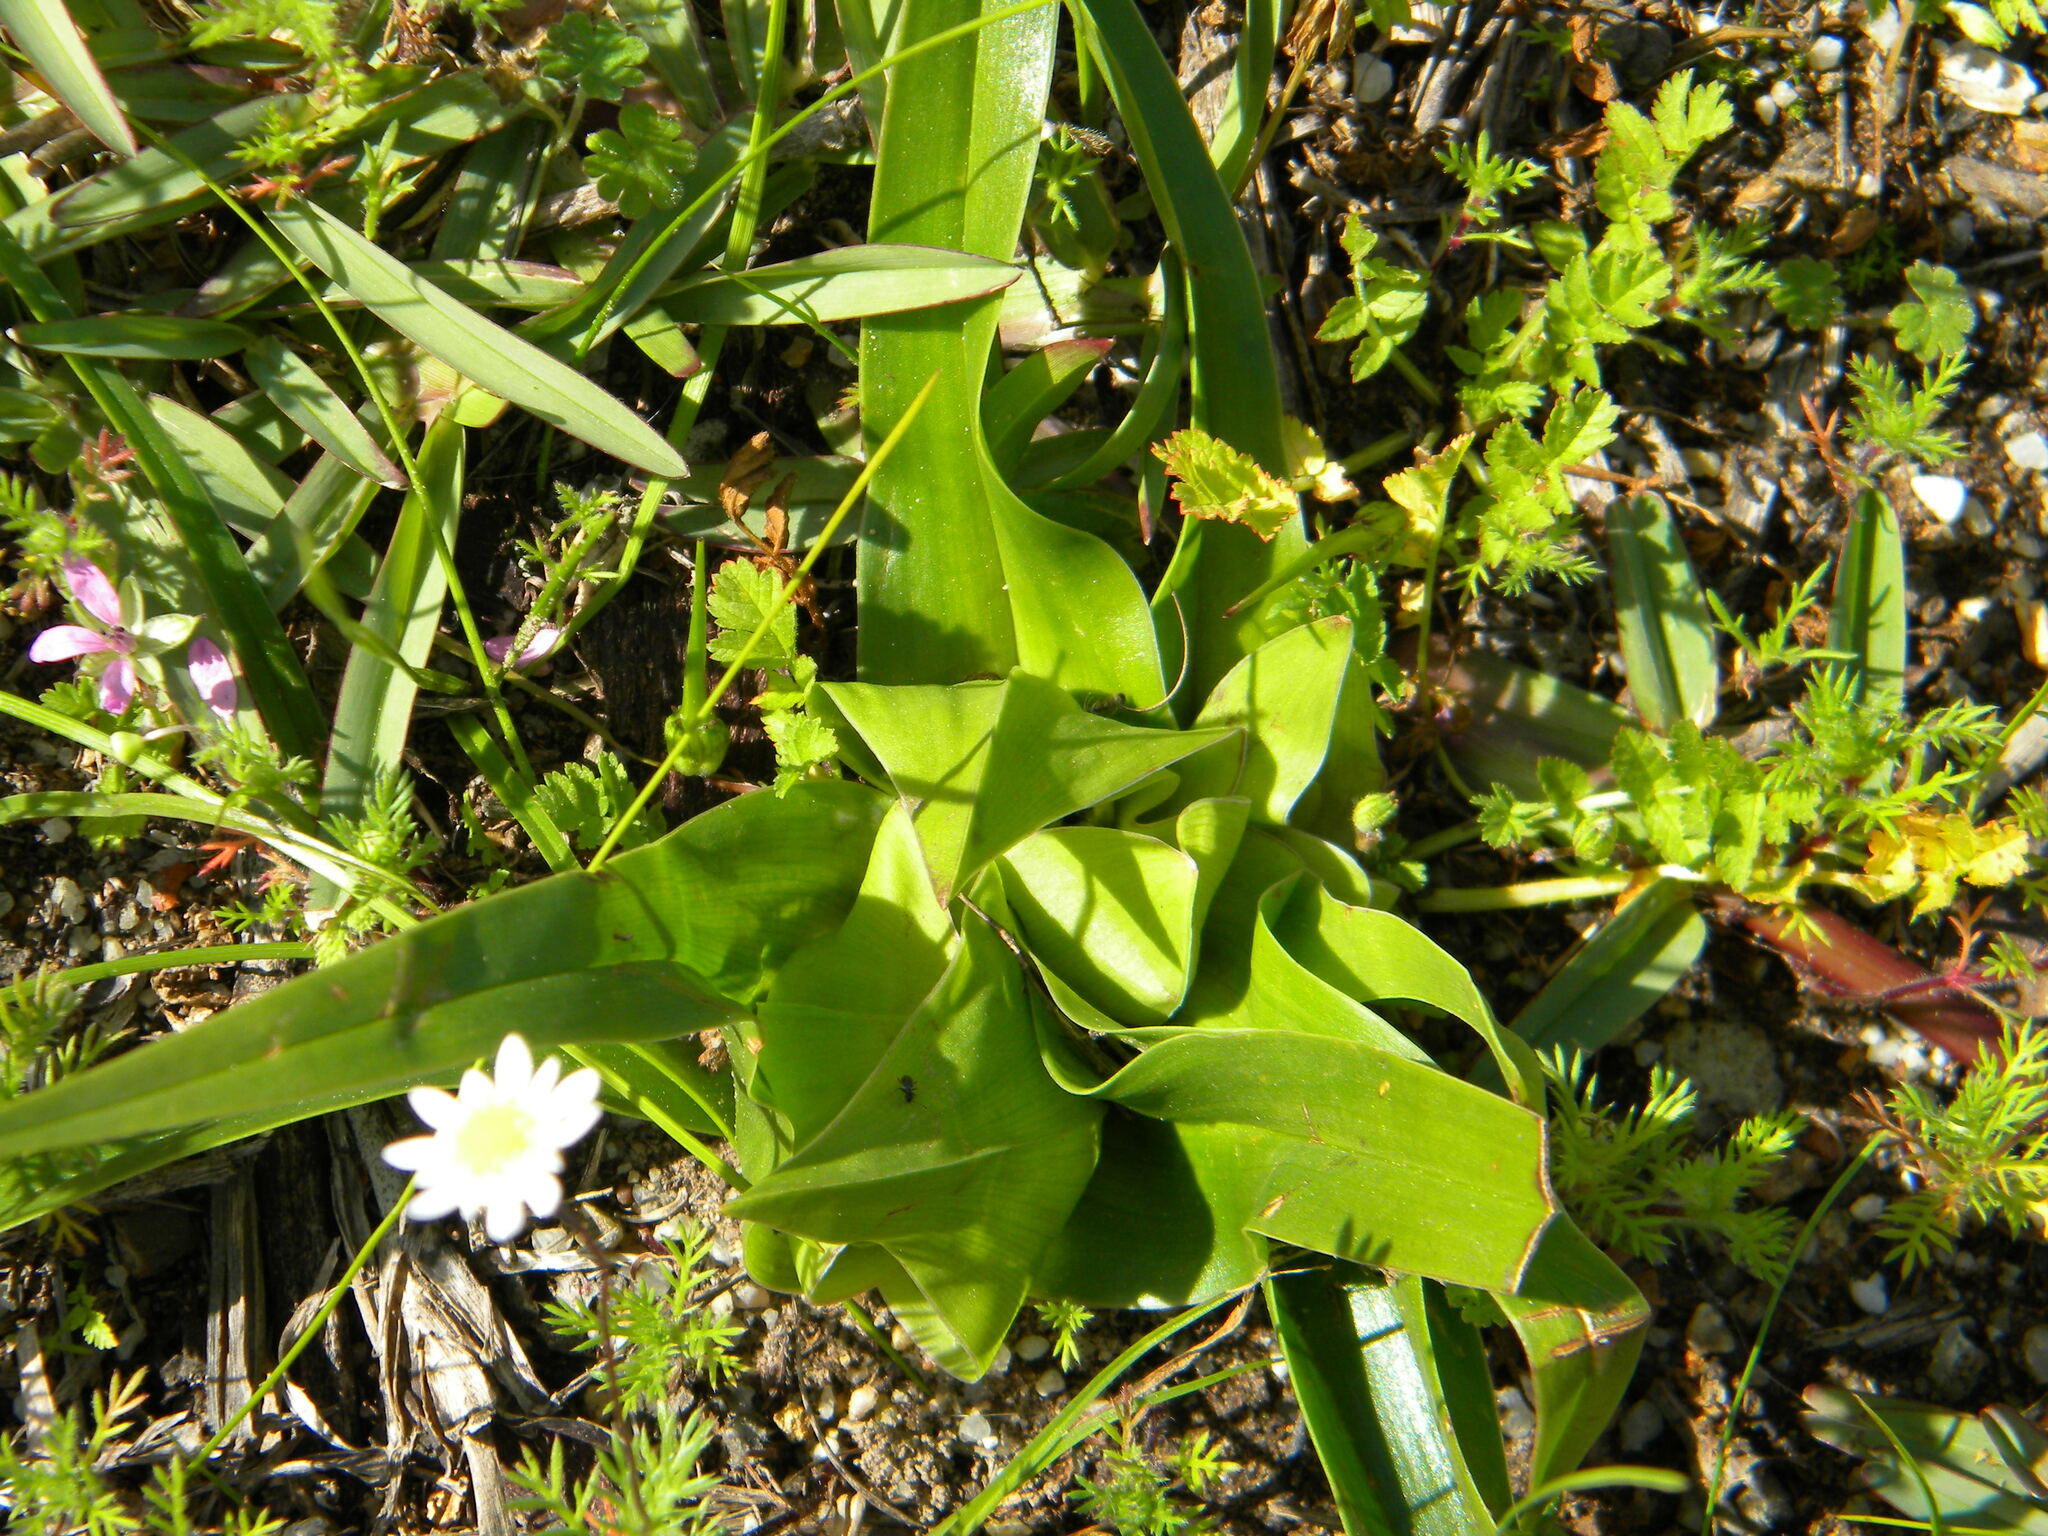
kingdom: Plantae
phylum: Tracheophyta
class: Liliopsida
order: Liliales
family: Colchicaceae
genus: Colchicum
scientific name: Colchicum eucomoides
